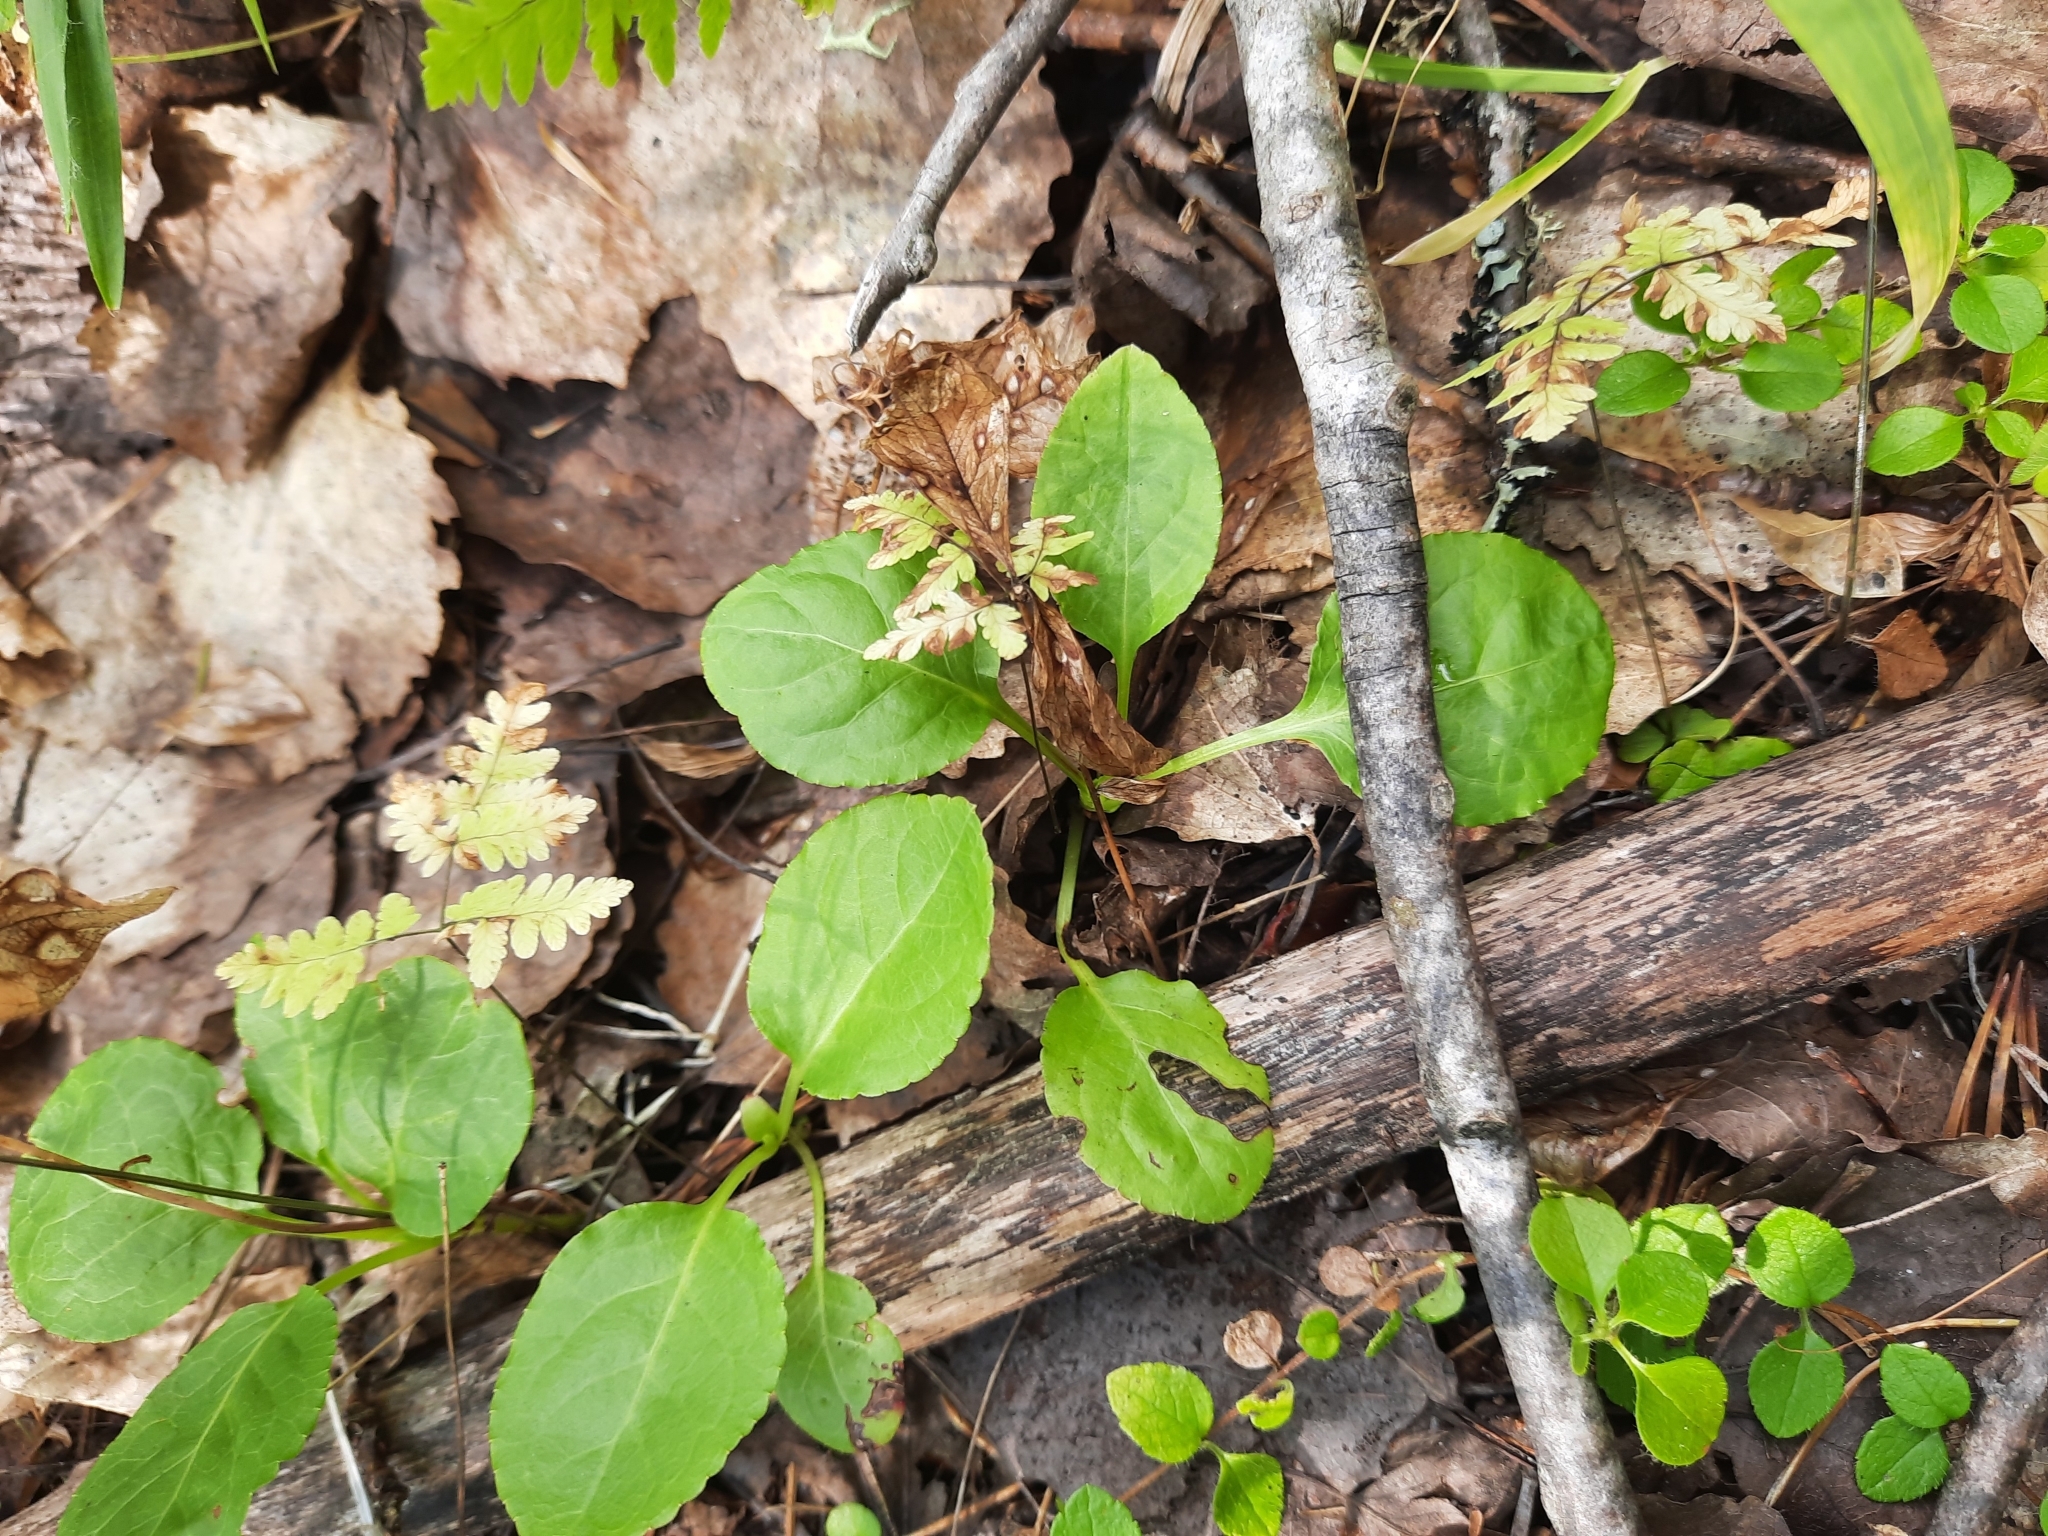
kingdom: Plantae
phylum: Tracheophyta
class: Magnoliopsida
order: Ericales
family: Ericaceae
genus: Orthilia
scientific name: Orthilia secunda
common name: One-sided orthilia
